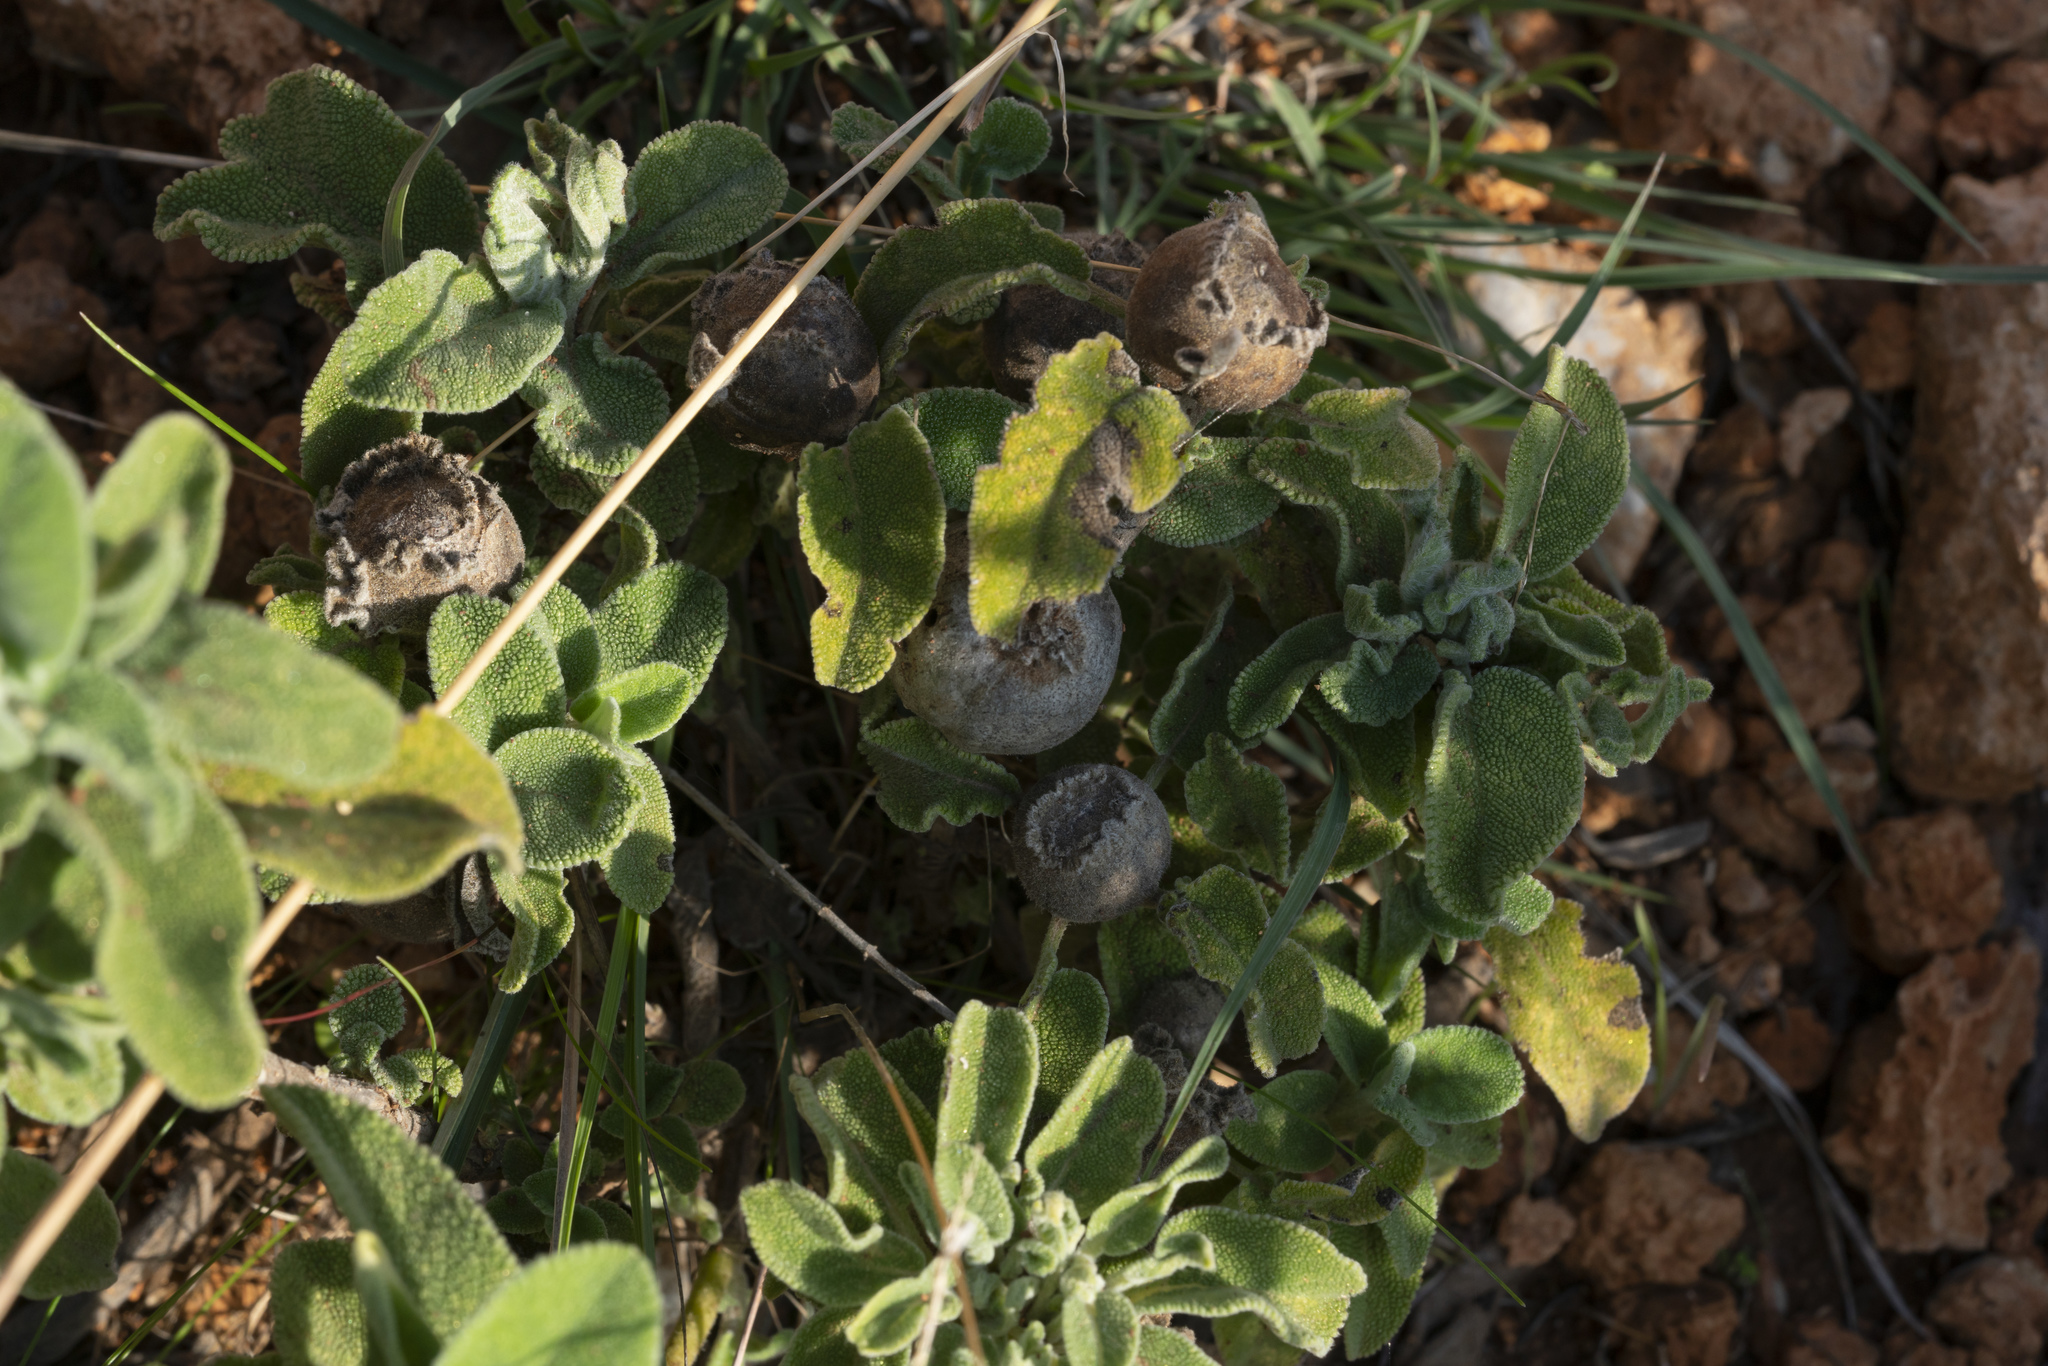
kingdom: Animalia
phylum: Arthropoda
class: Insecta
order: Hymenoptera
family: Cynipidae
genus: Rhodus
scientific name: Rhodus
